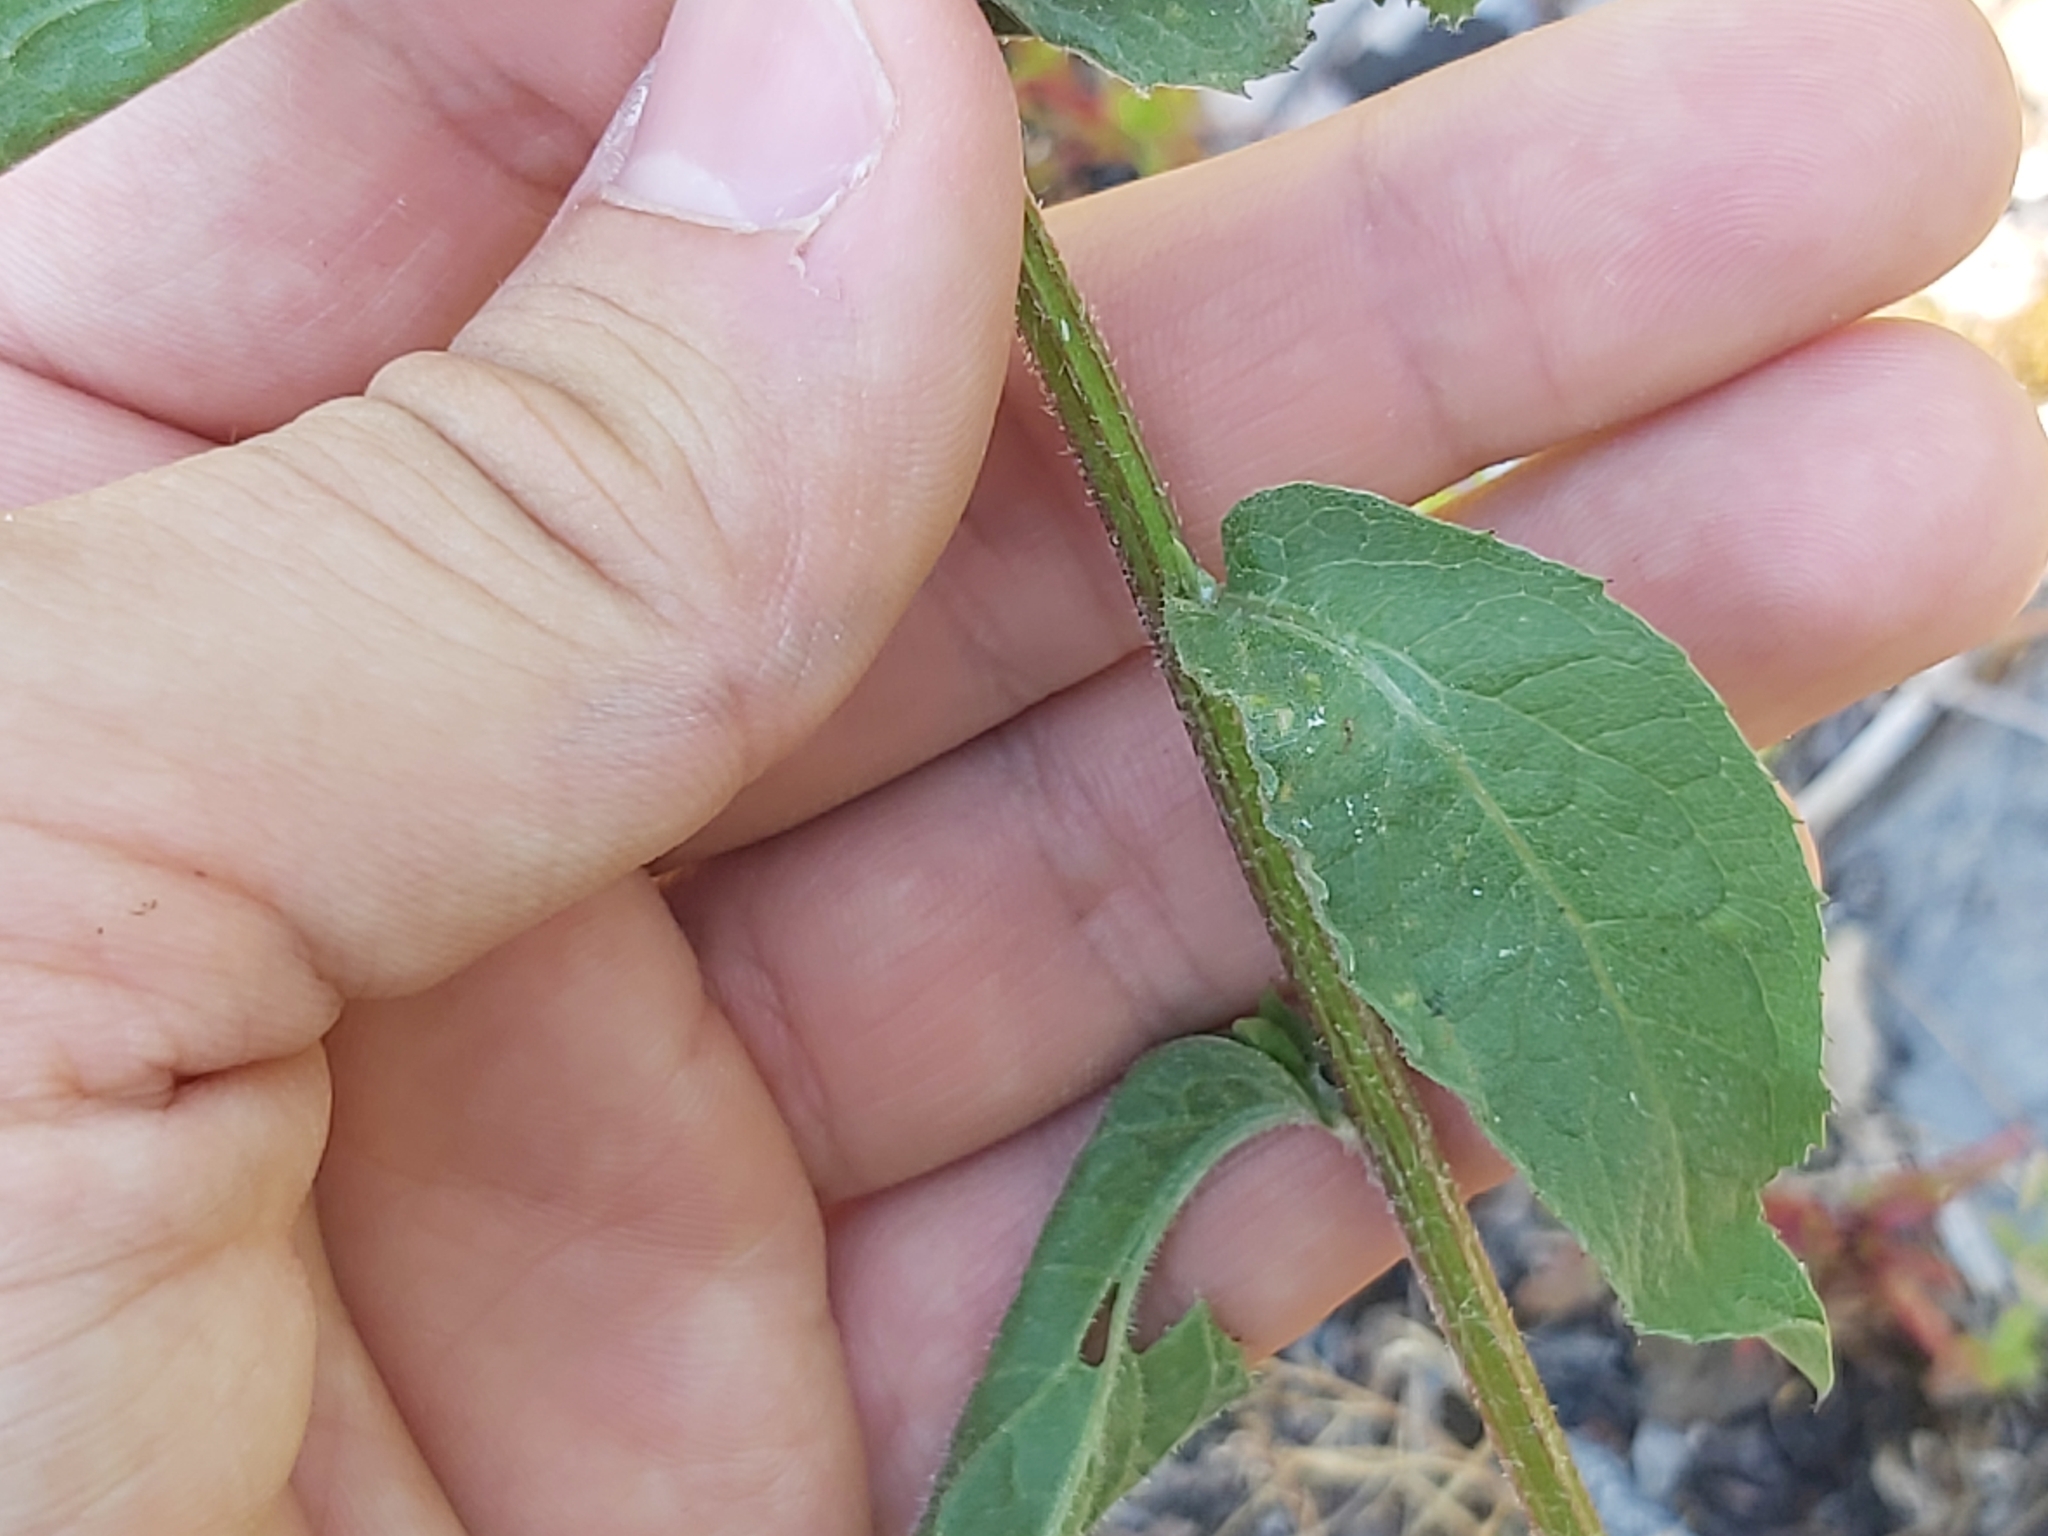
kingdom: Plantae
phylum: Tracheophyta
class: Magnoliopsida
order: Asterales
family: Asteraceae
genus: Centaurea
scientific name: Centaurea phrygia
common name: Wig knapweed
